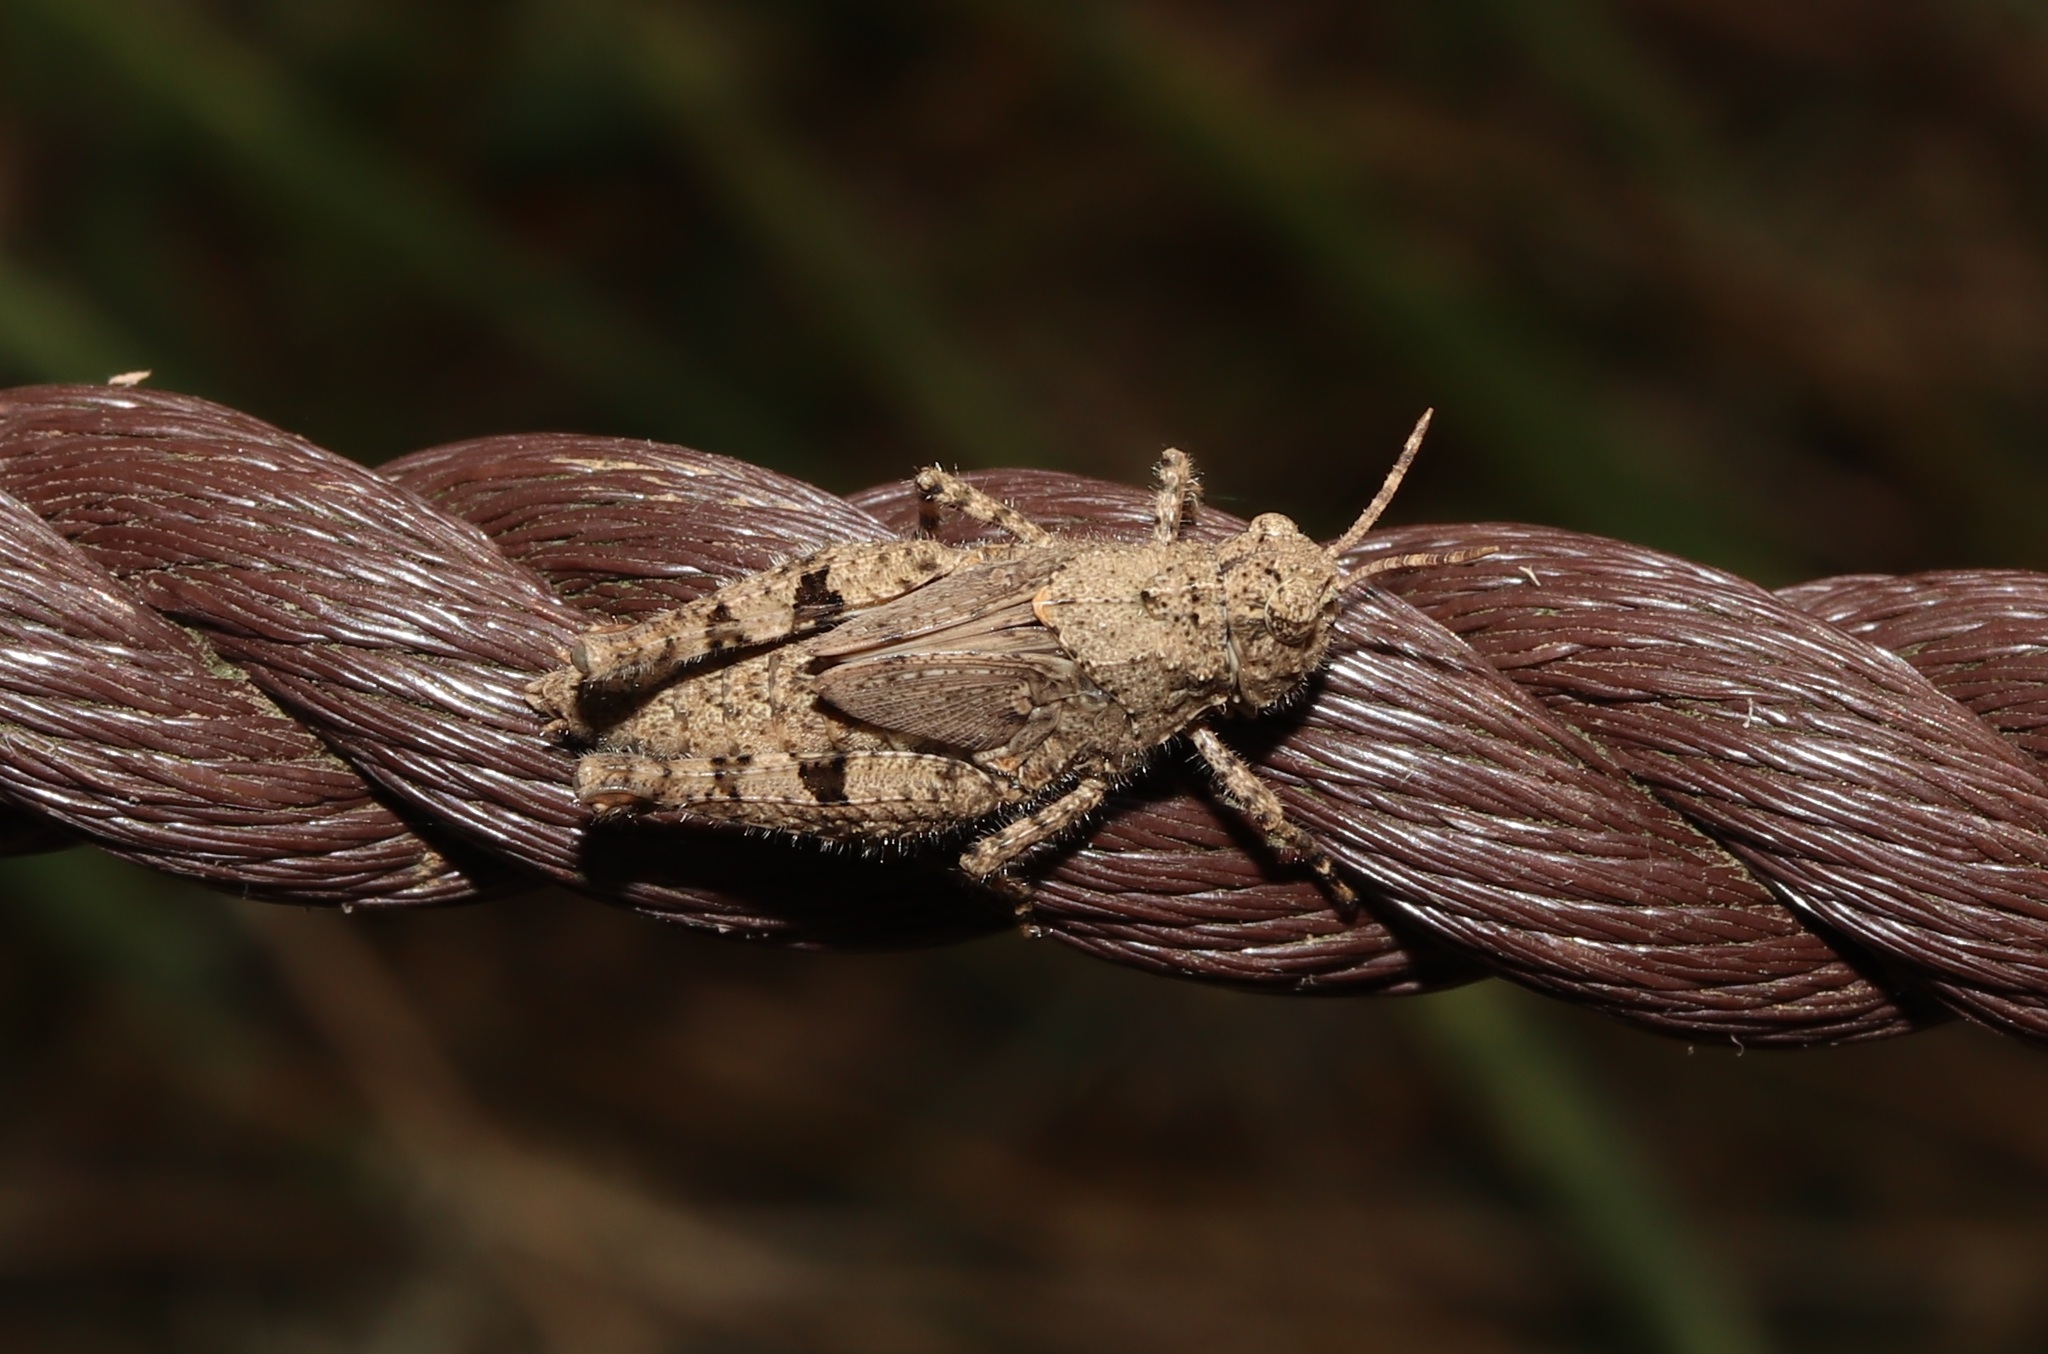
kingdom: Animalia
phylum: Arthropoda
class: Insecta
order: Orthoptera
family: Acrididae
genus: Trilophidia
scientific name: Trilophidia annulata
